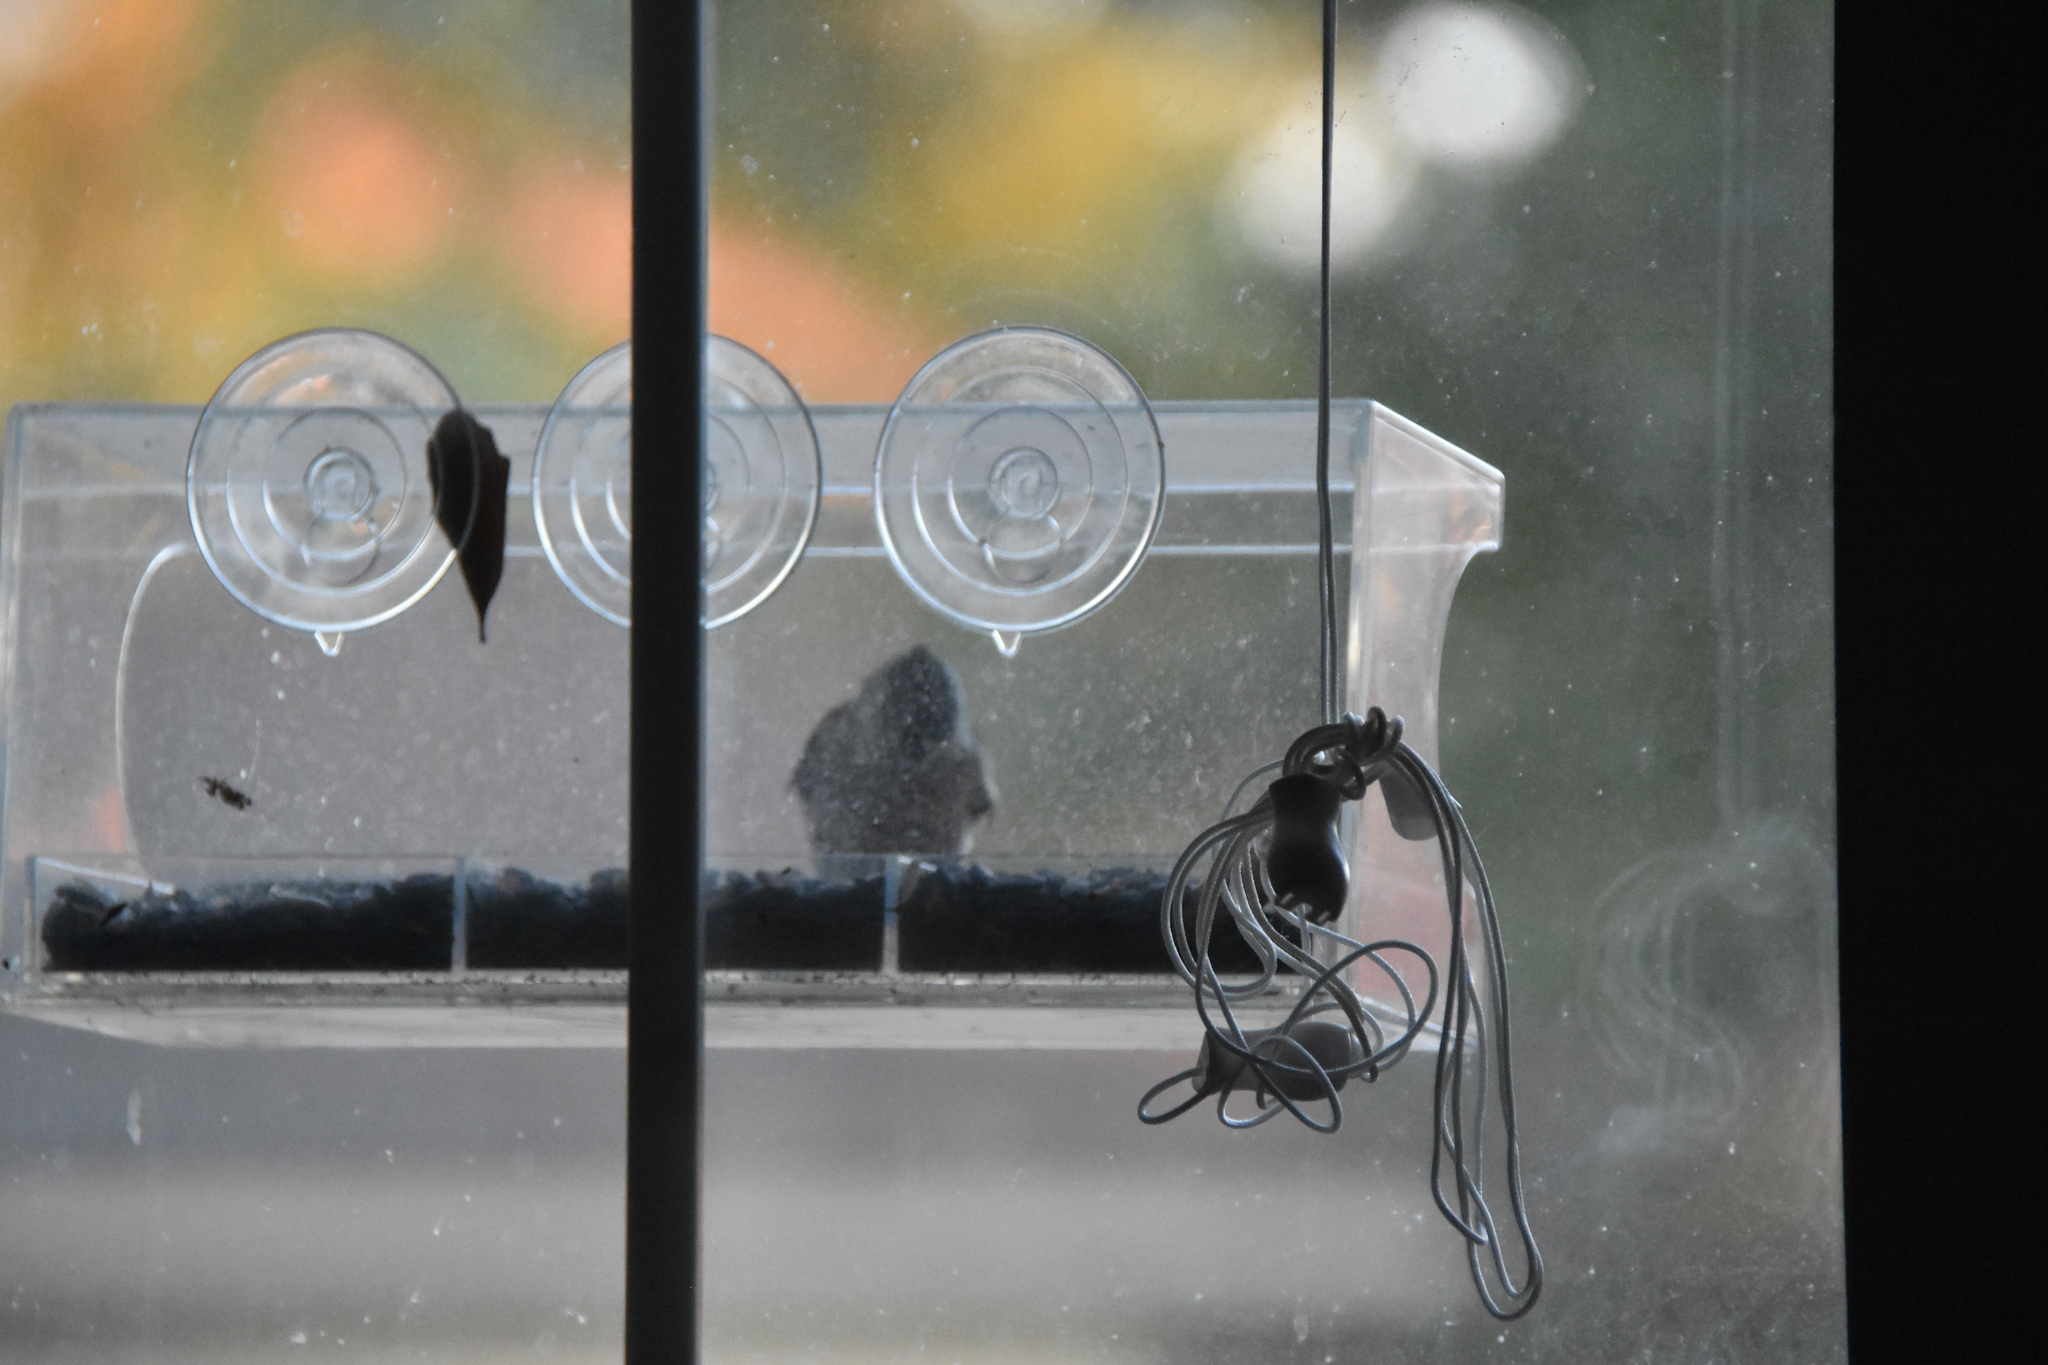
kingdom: Animalia
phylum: Chordata
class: Aves
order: Passeriformes
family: Paridae
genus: Baeolophus
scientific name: Baeolophus bicolor
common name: Tufted titmouse
